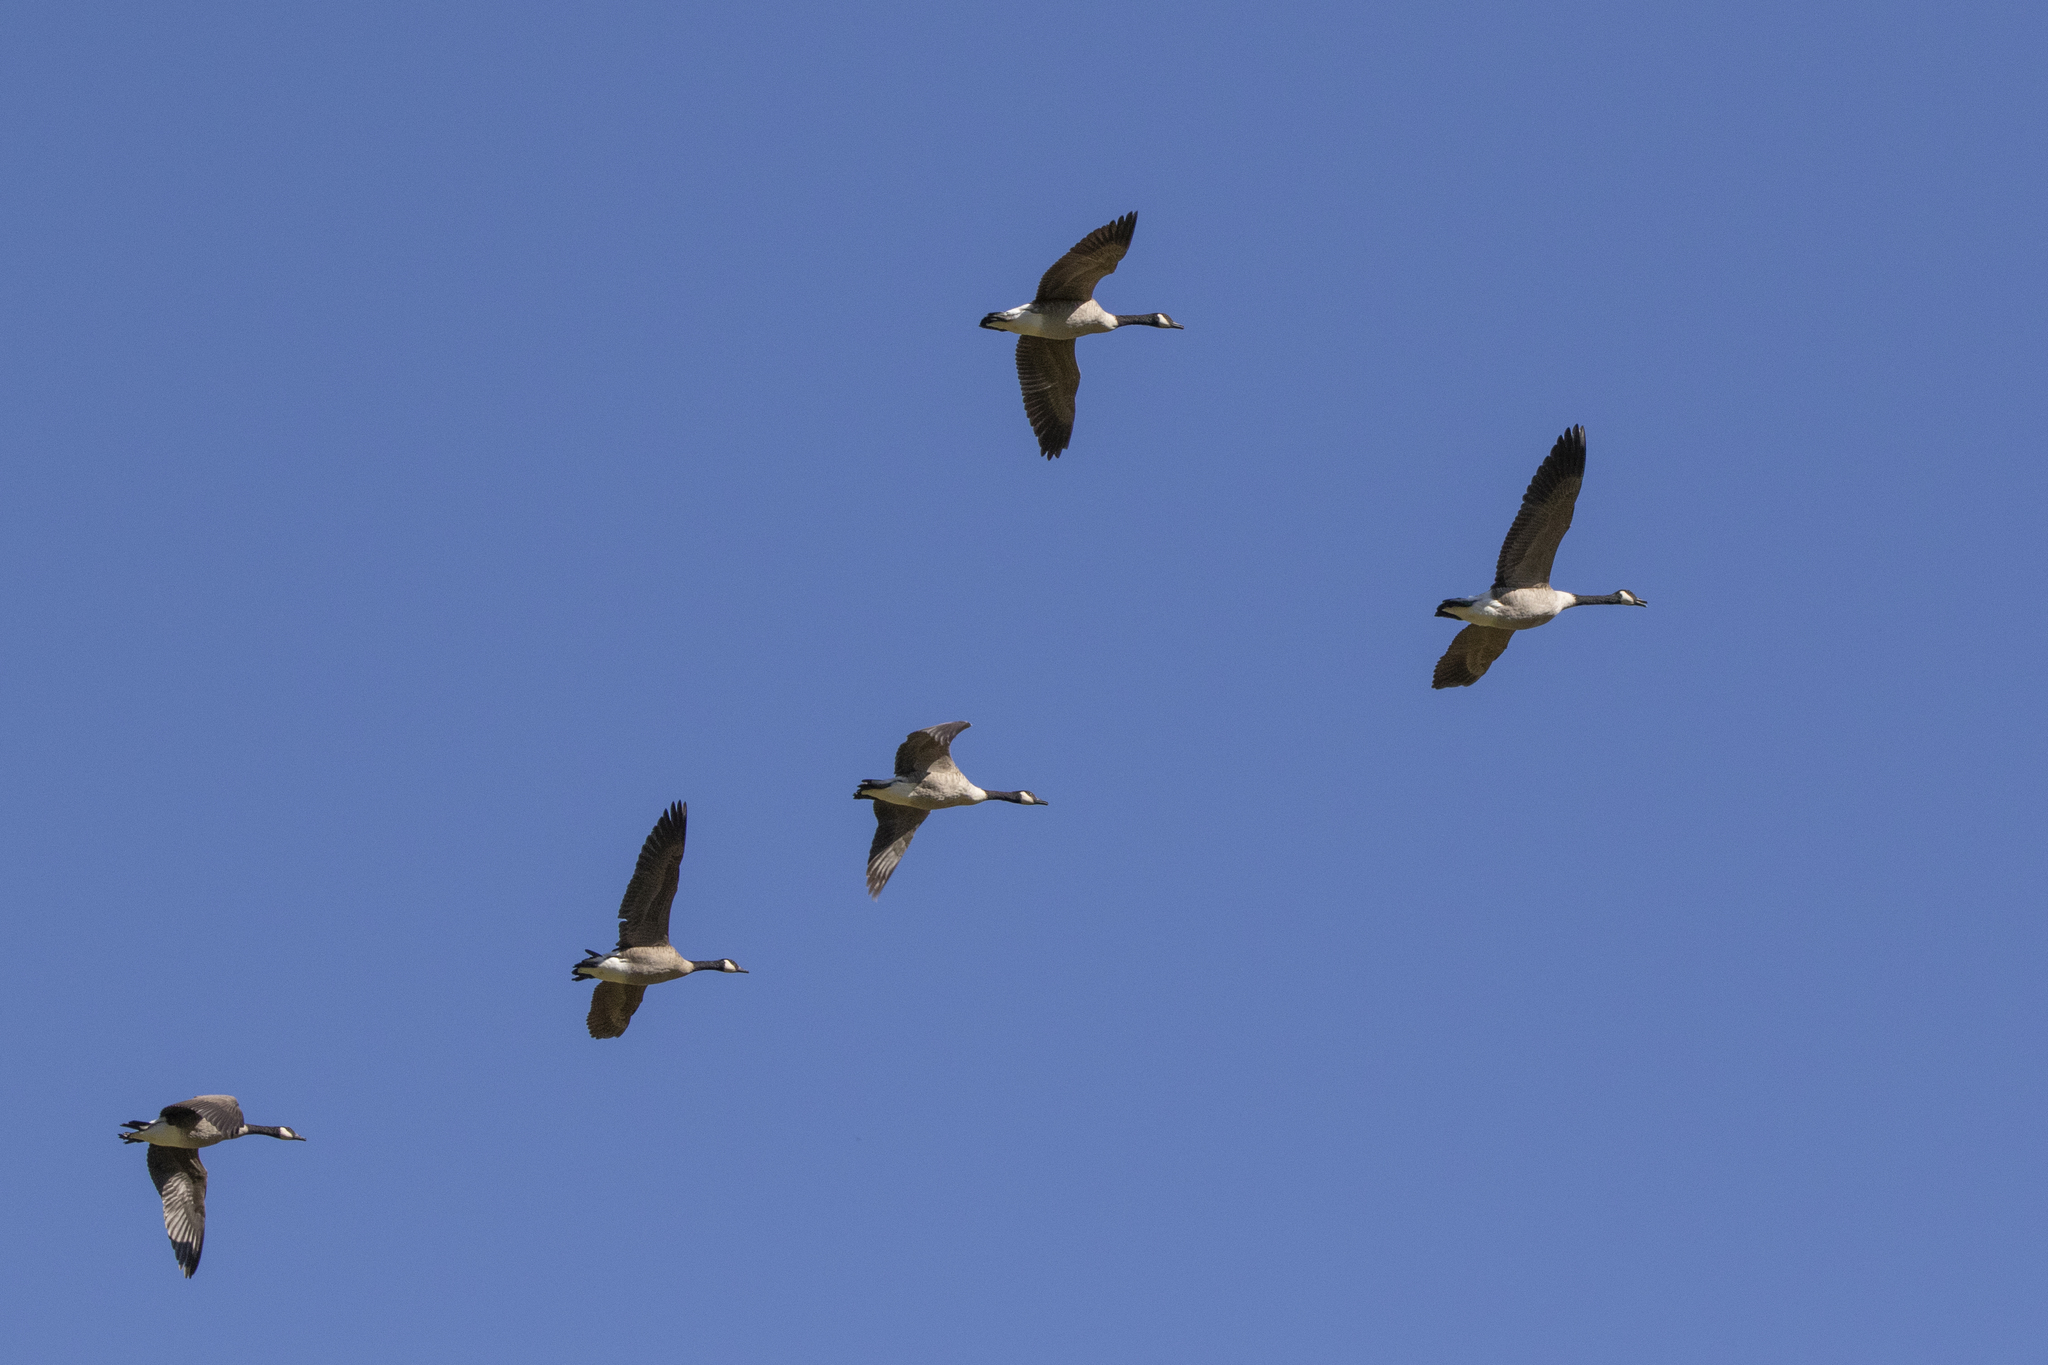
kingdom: Animalia
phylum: Chordata
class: Aves
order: Anseriformes
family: Anatidae
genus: Branta
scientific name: Branta canadensis
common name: Canada goose
